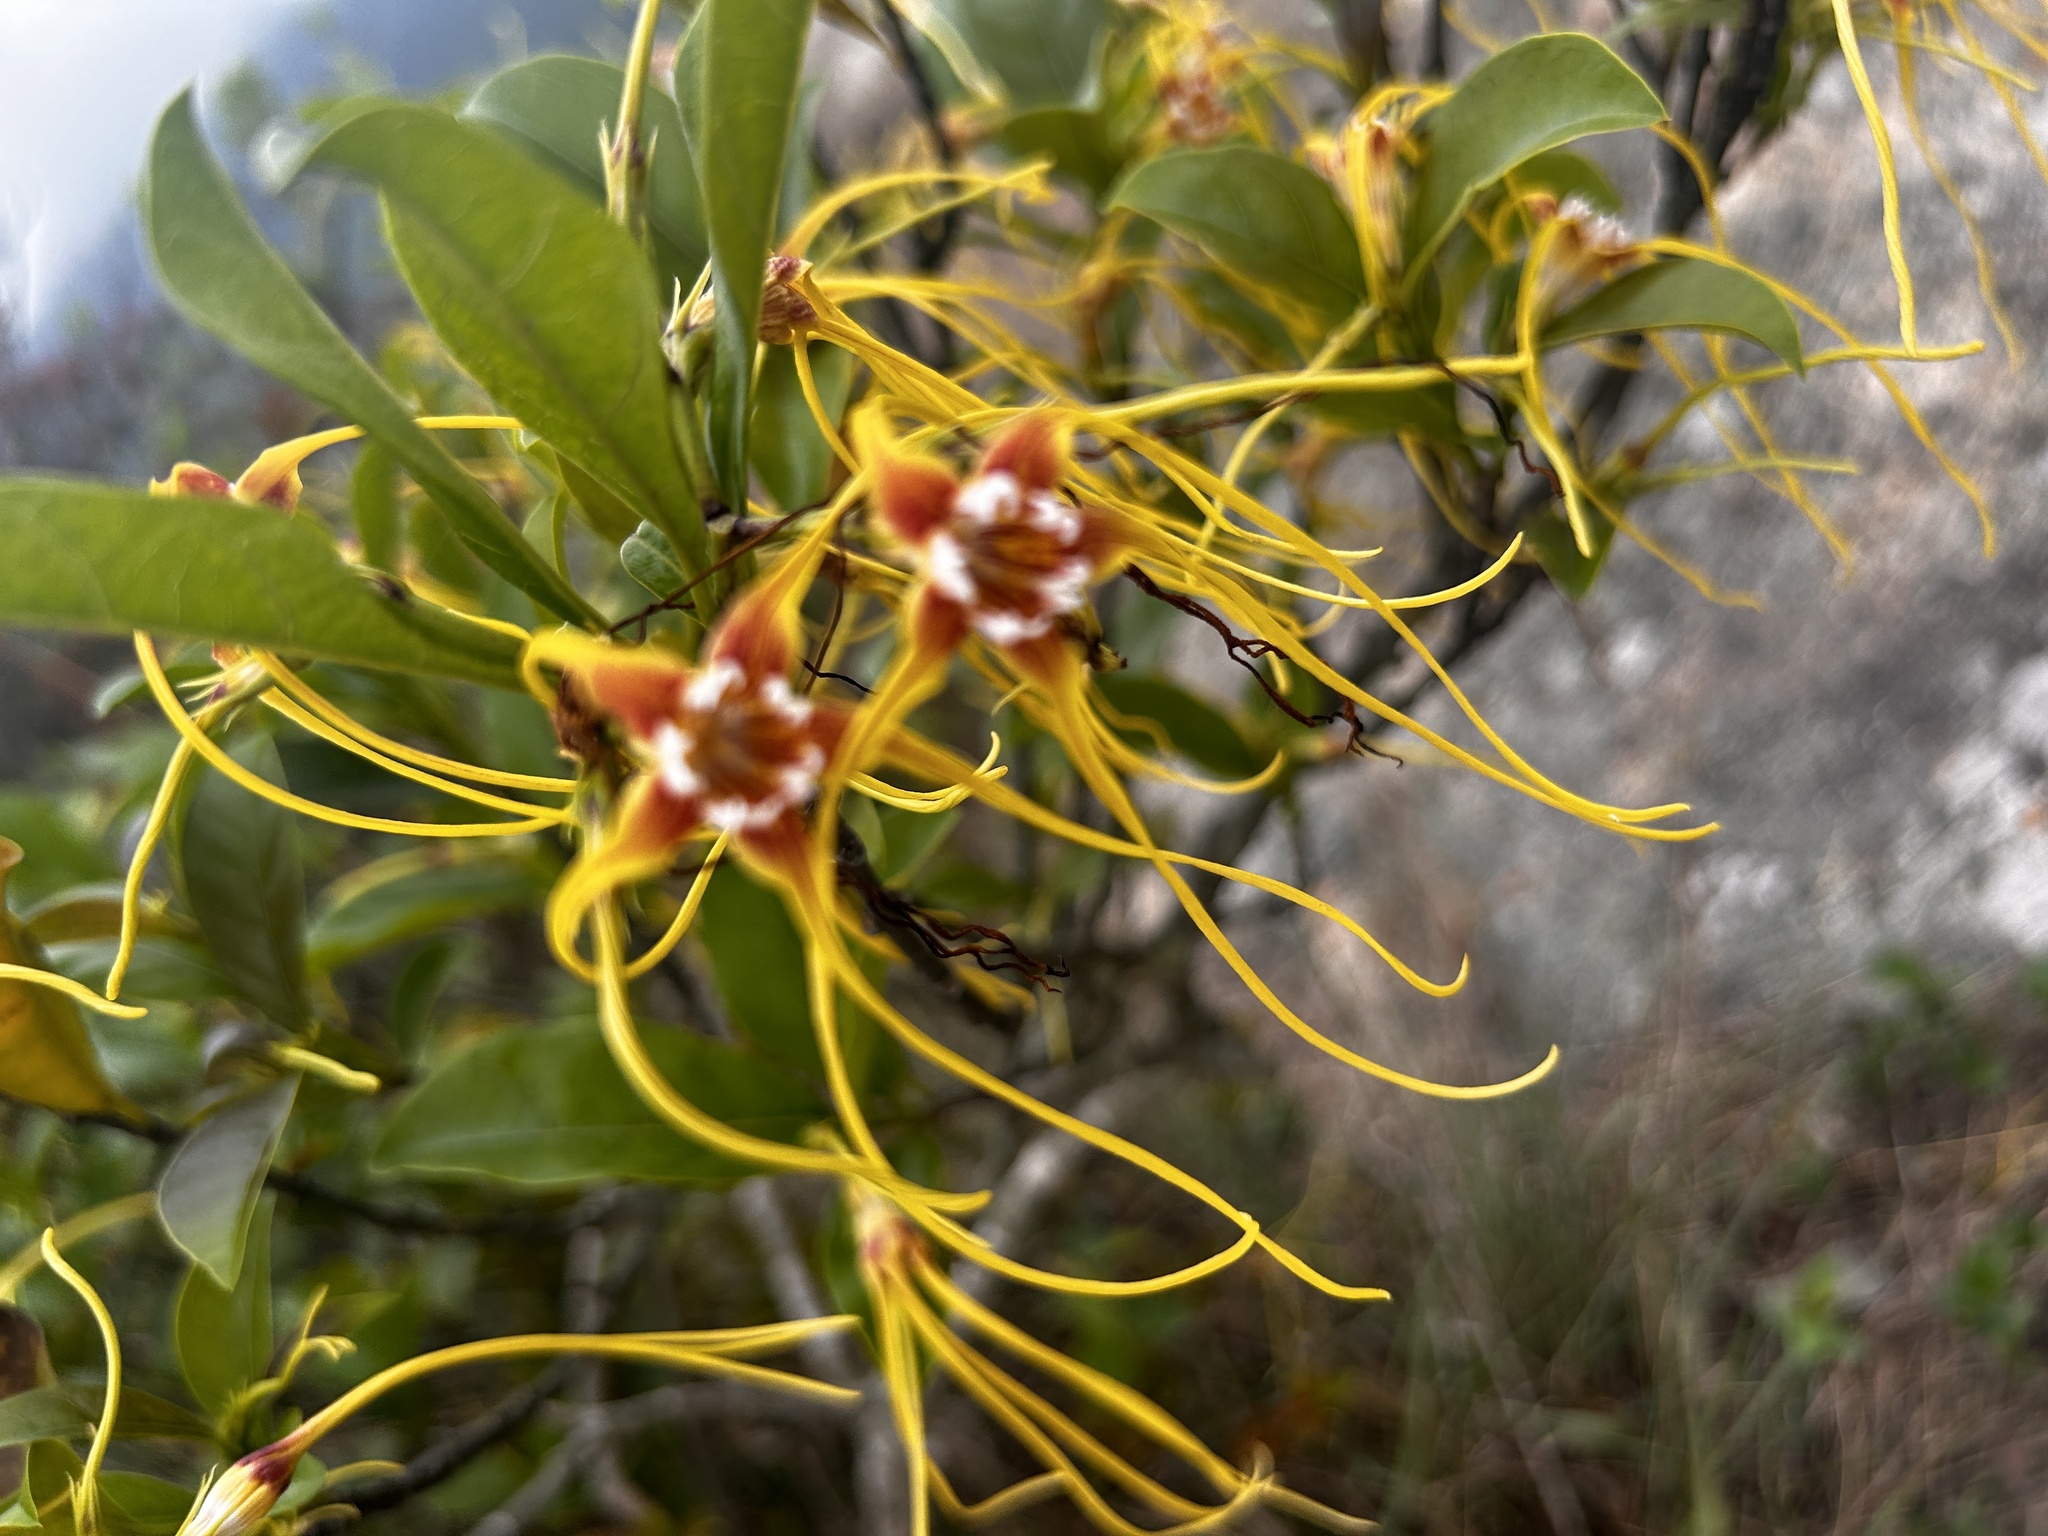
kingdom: Plantae
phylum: Tracheophyta
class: Magnoliopsida
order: Gentianales
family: Apocynaceae
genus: Strophanthus
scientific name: Strophanthus divaricatus
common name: Goat-horns
